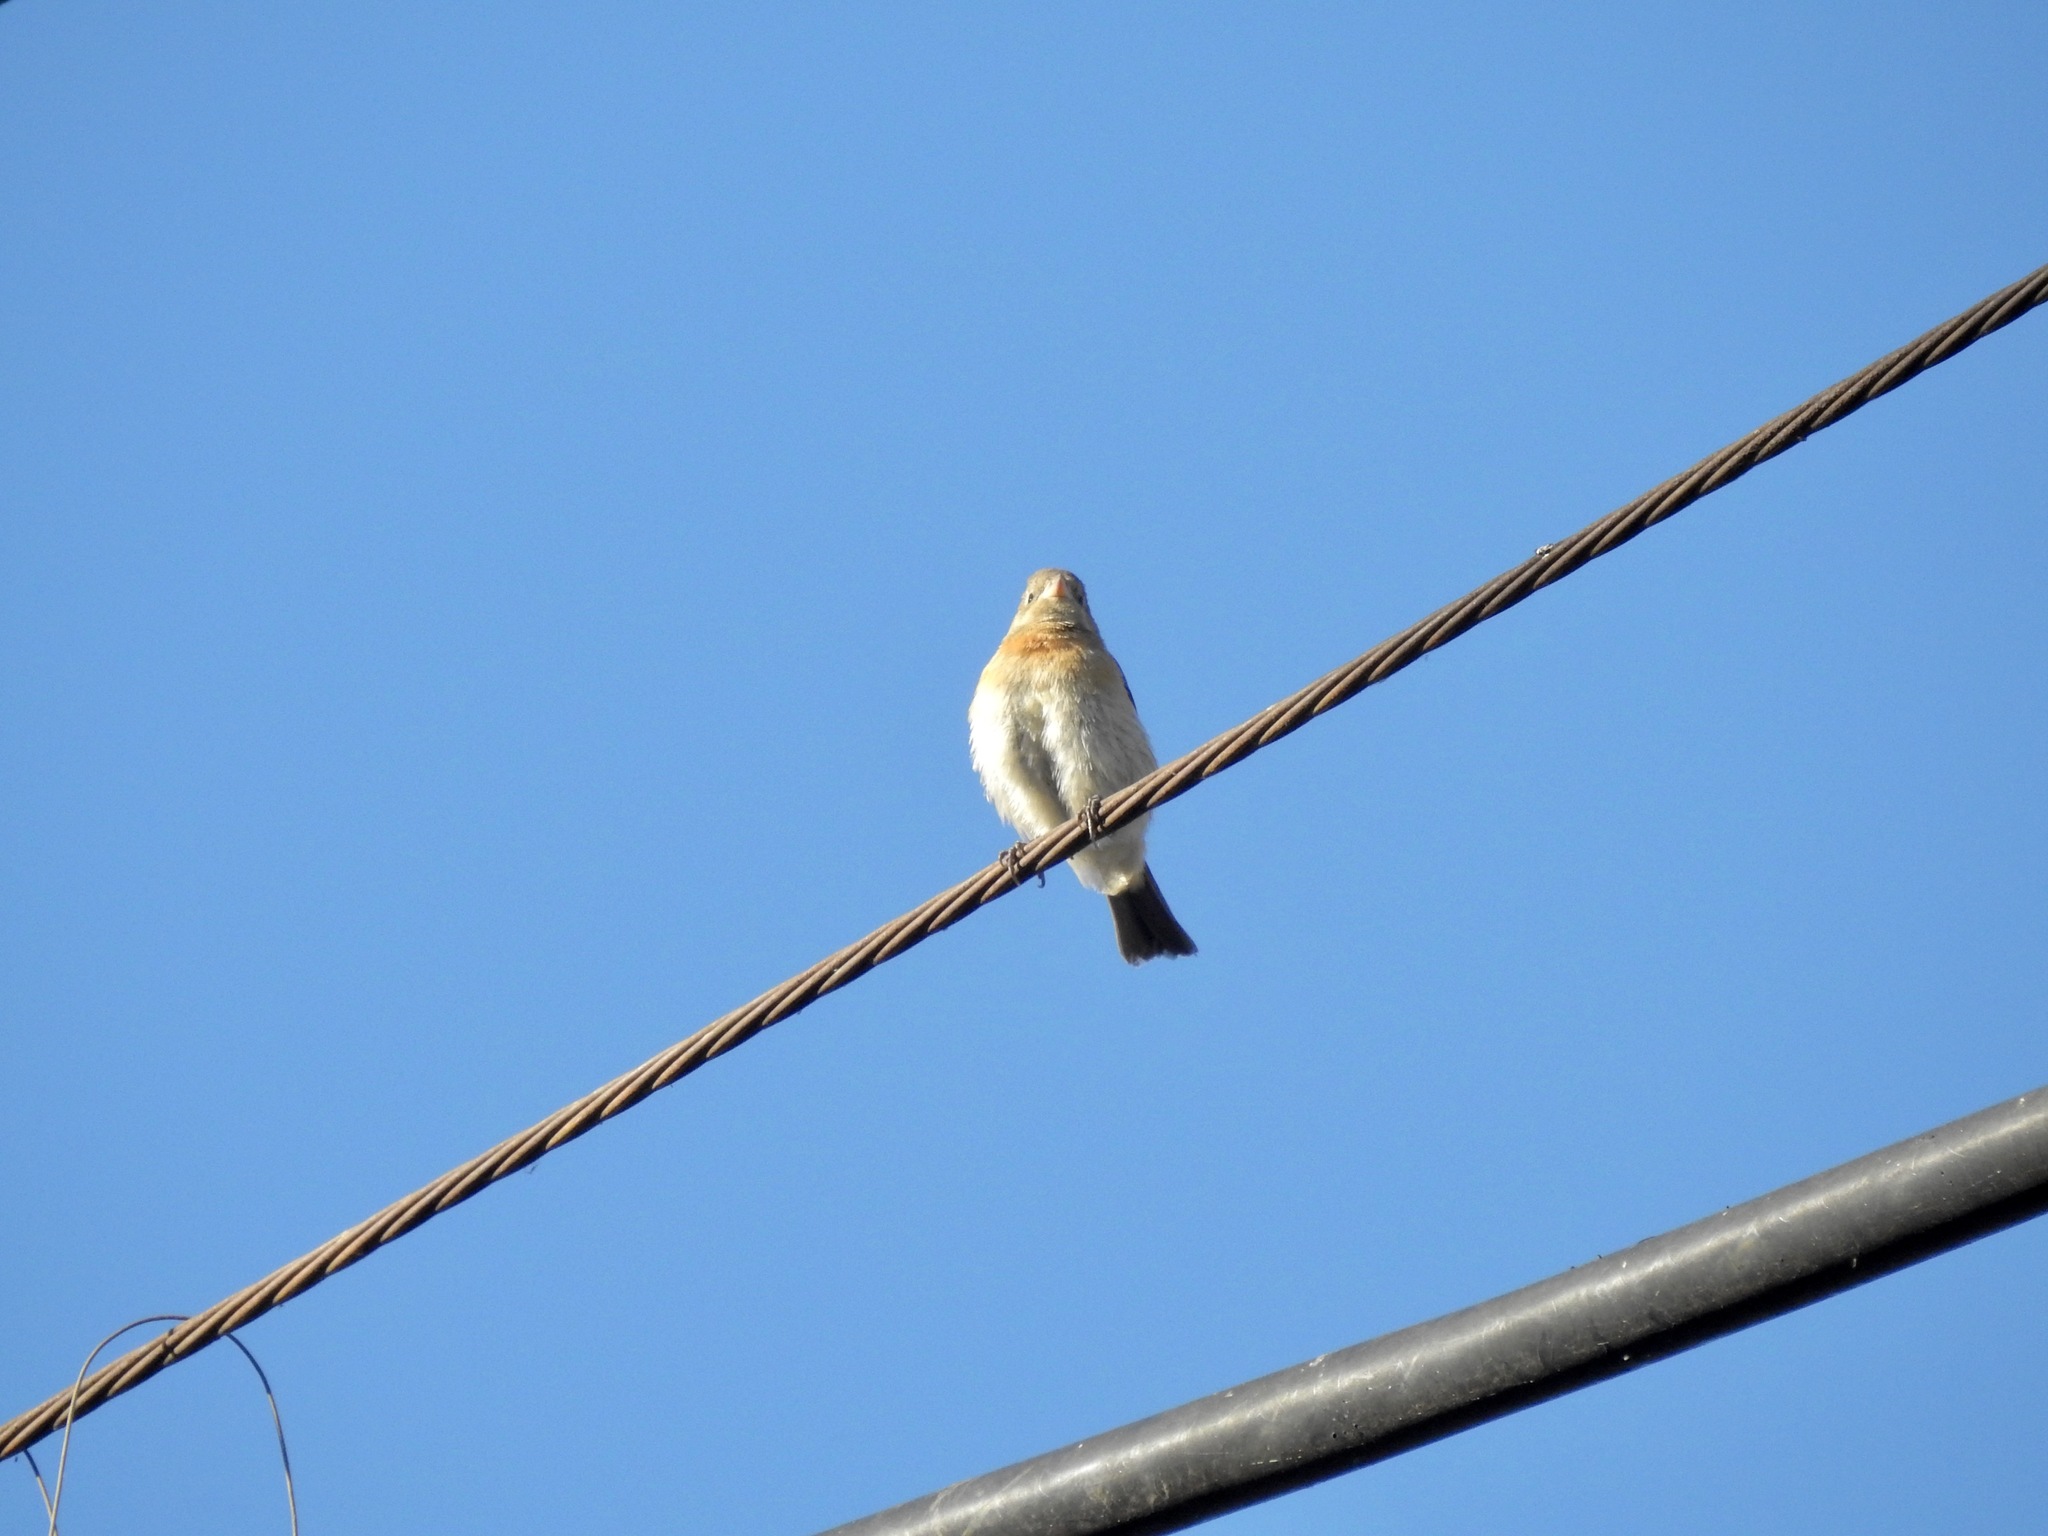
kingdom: Animalia
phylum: Chordata
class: Aves
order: Passeriformes
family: Cardinalidae
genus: Passerina
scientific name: Passerina amoena
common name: Lazuli bunting
